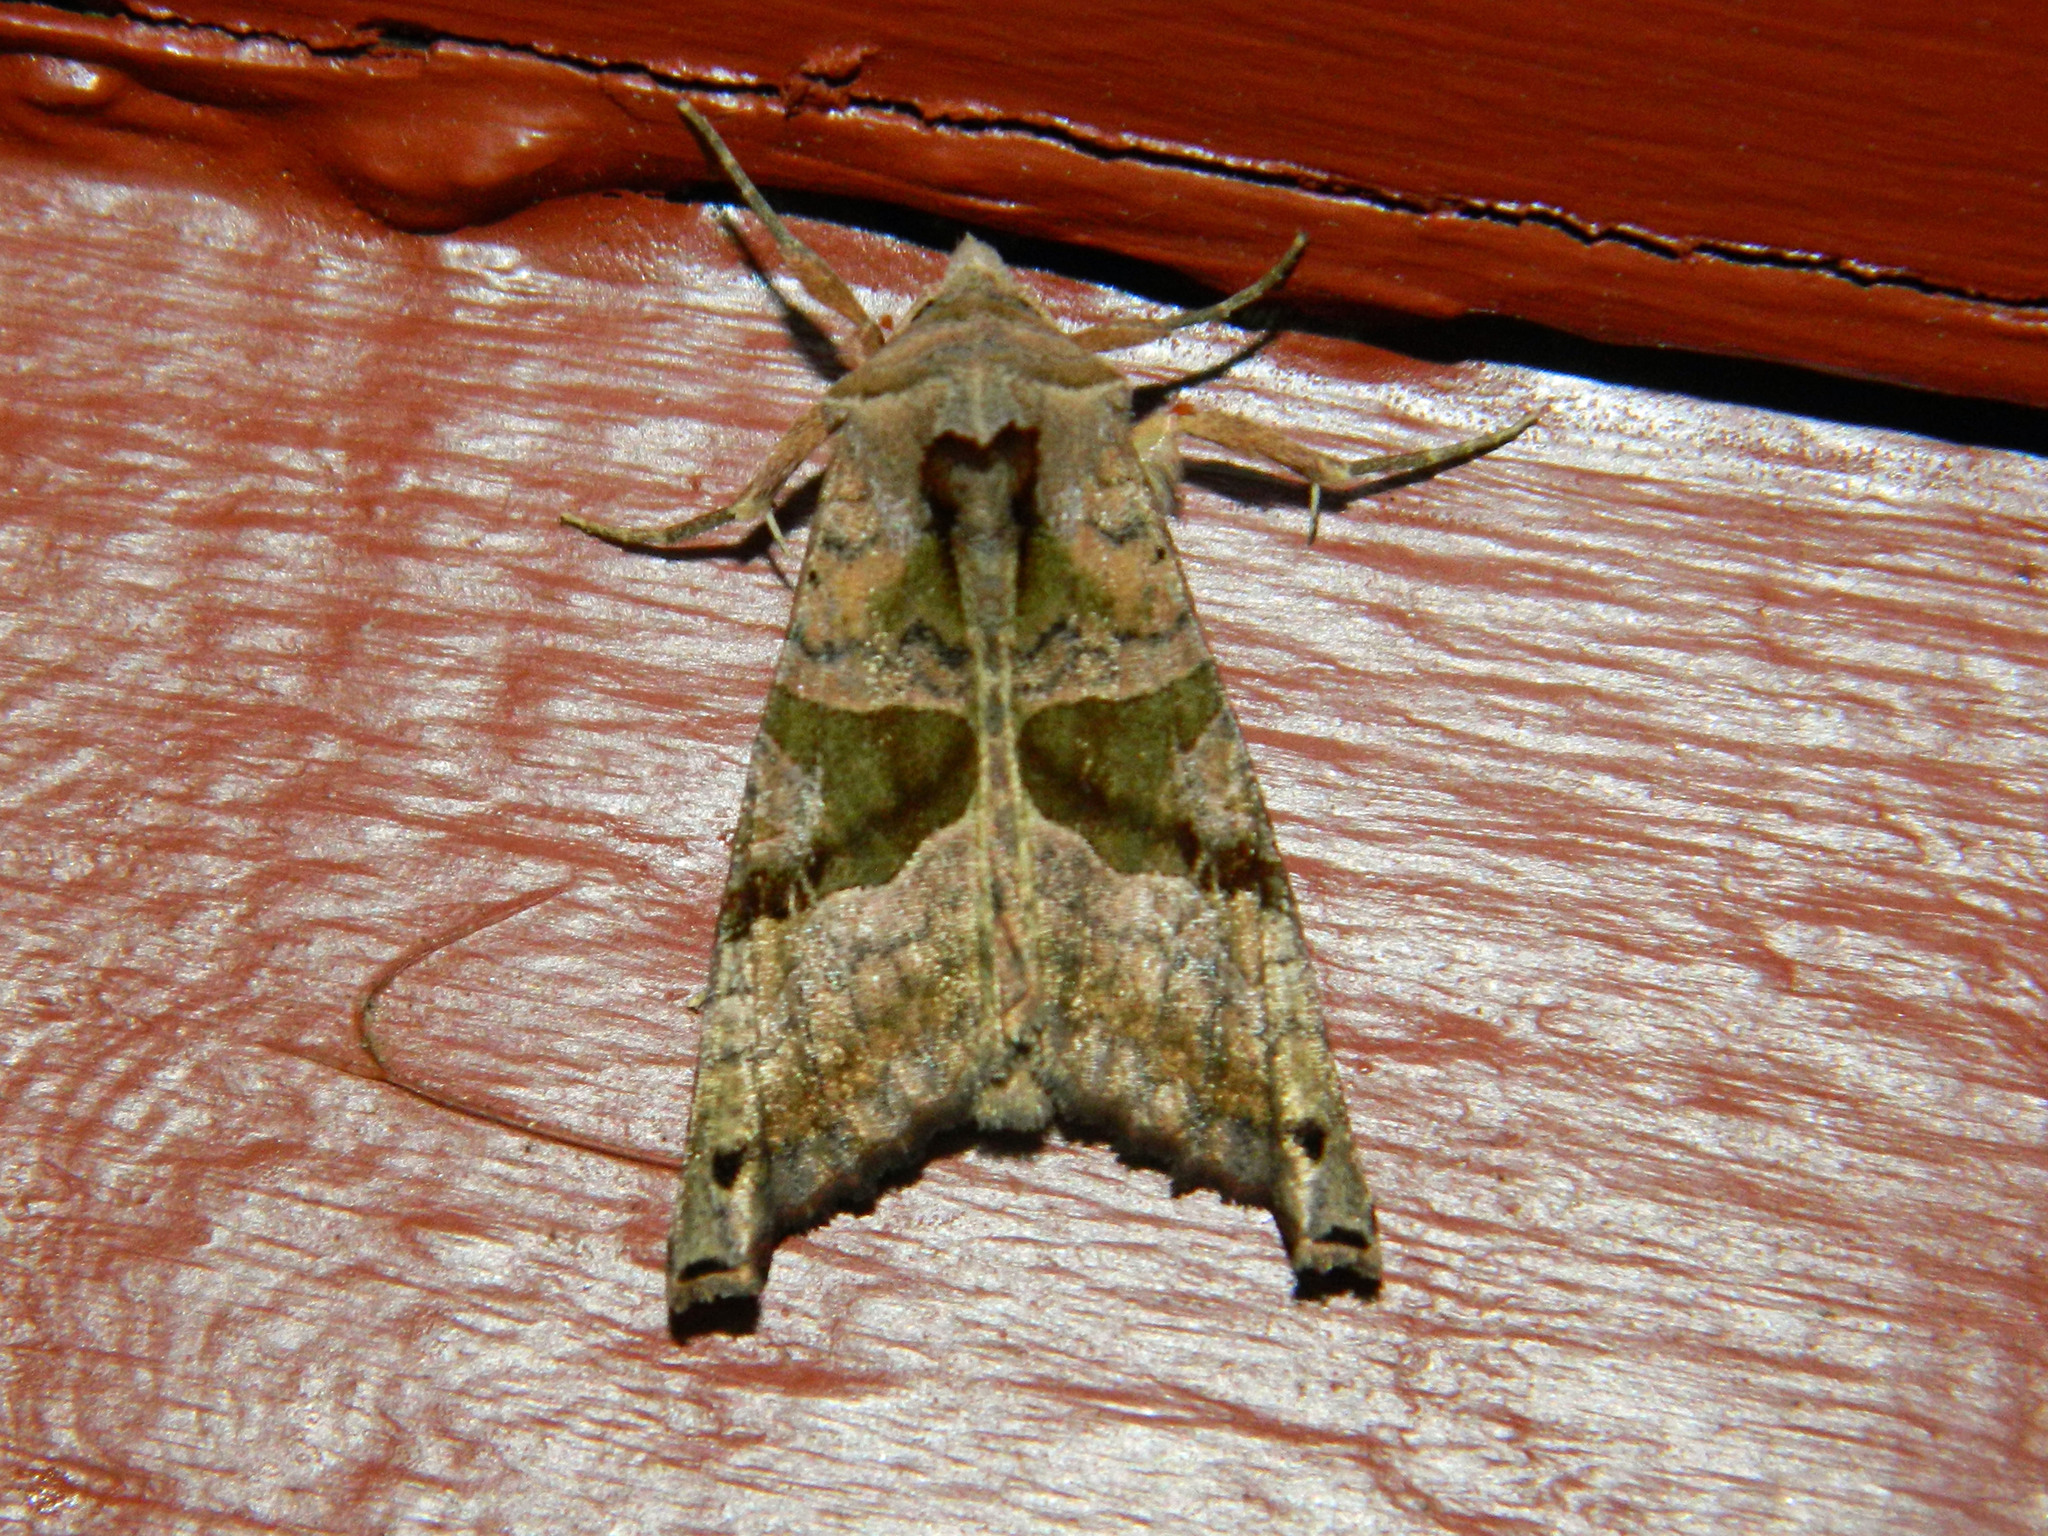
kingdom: Animalia
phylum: Arthropoda
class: Insecta
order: Lepidoptera
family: Noctuidae
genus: Phlogophora
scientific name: Phlogophora periculosa
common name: Brown angle shades
